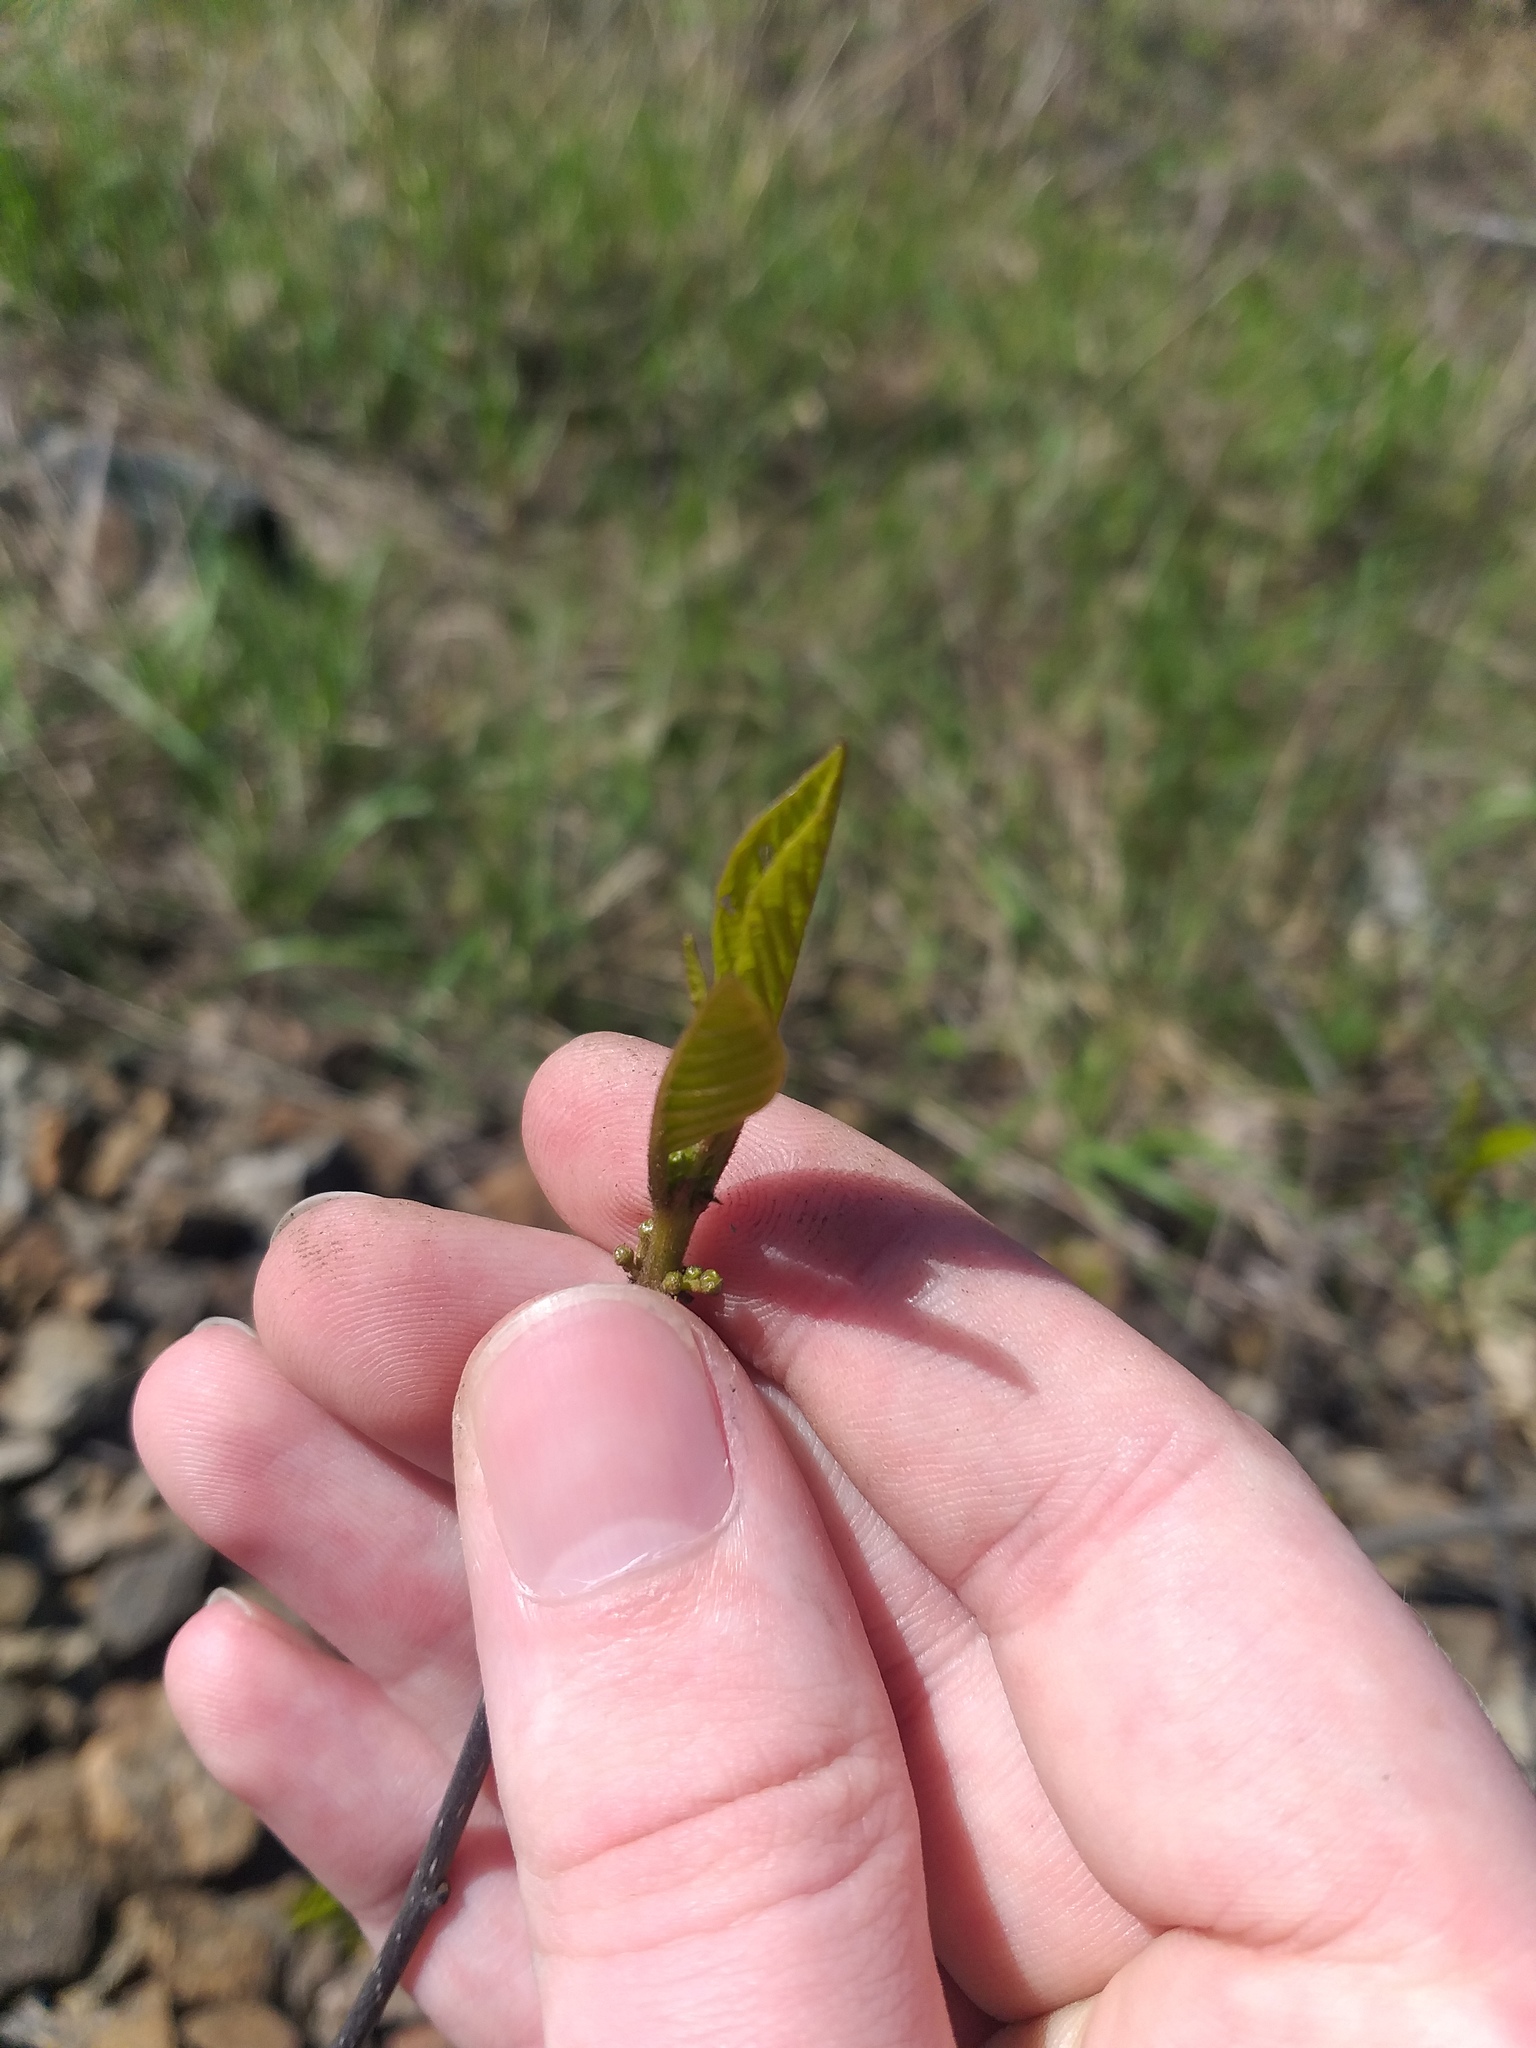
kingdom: Plantae
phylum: Tracheophyta
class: Magnoliopsida
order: Rosales
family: Rhamnaceae
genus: Frangula
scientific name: Frangula alnus
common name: Alder buckthorn
